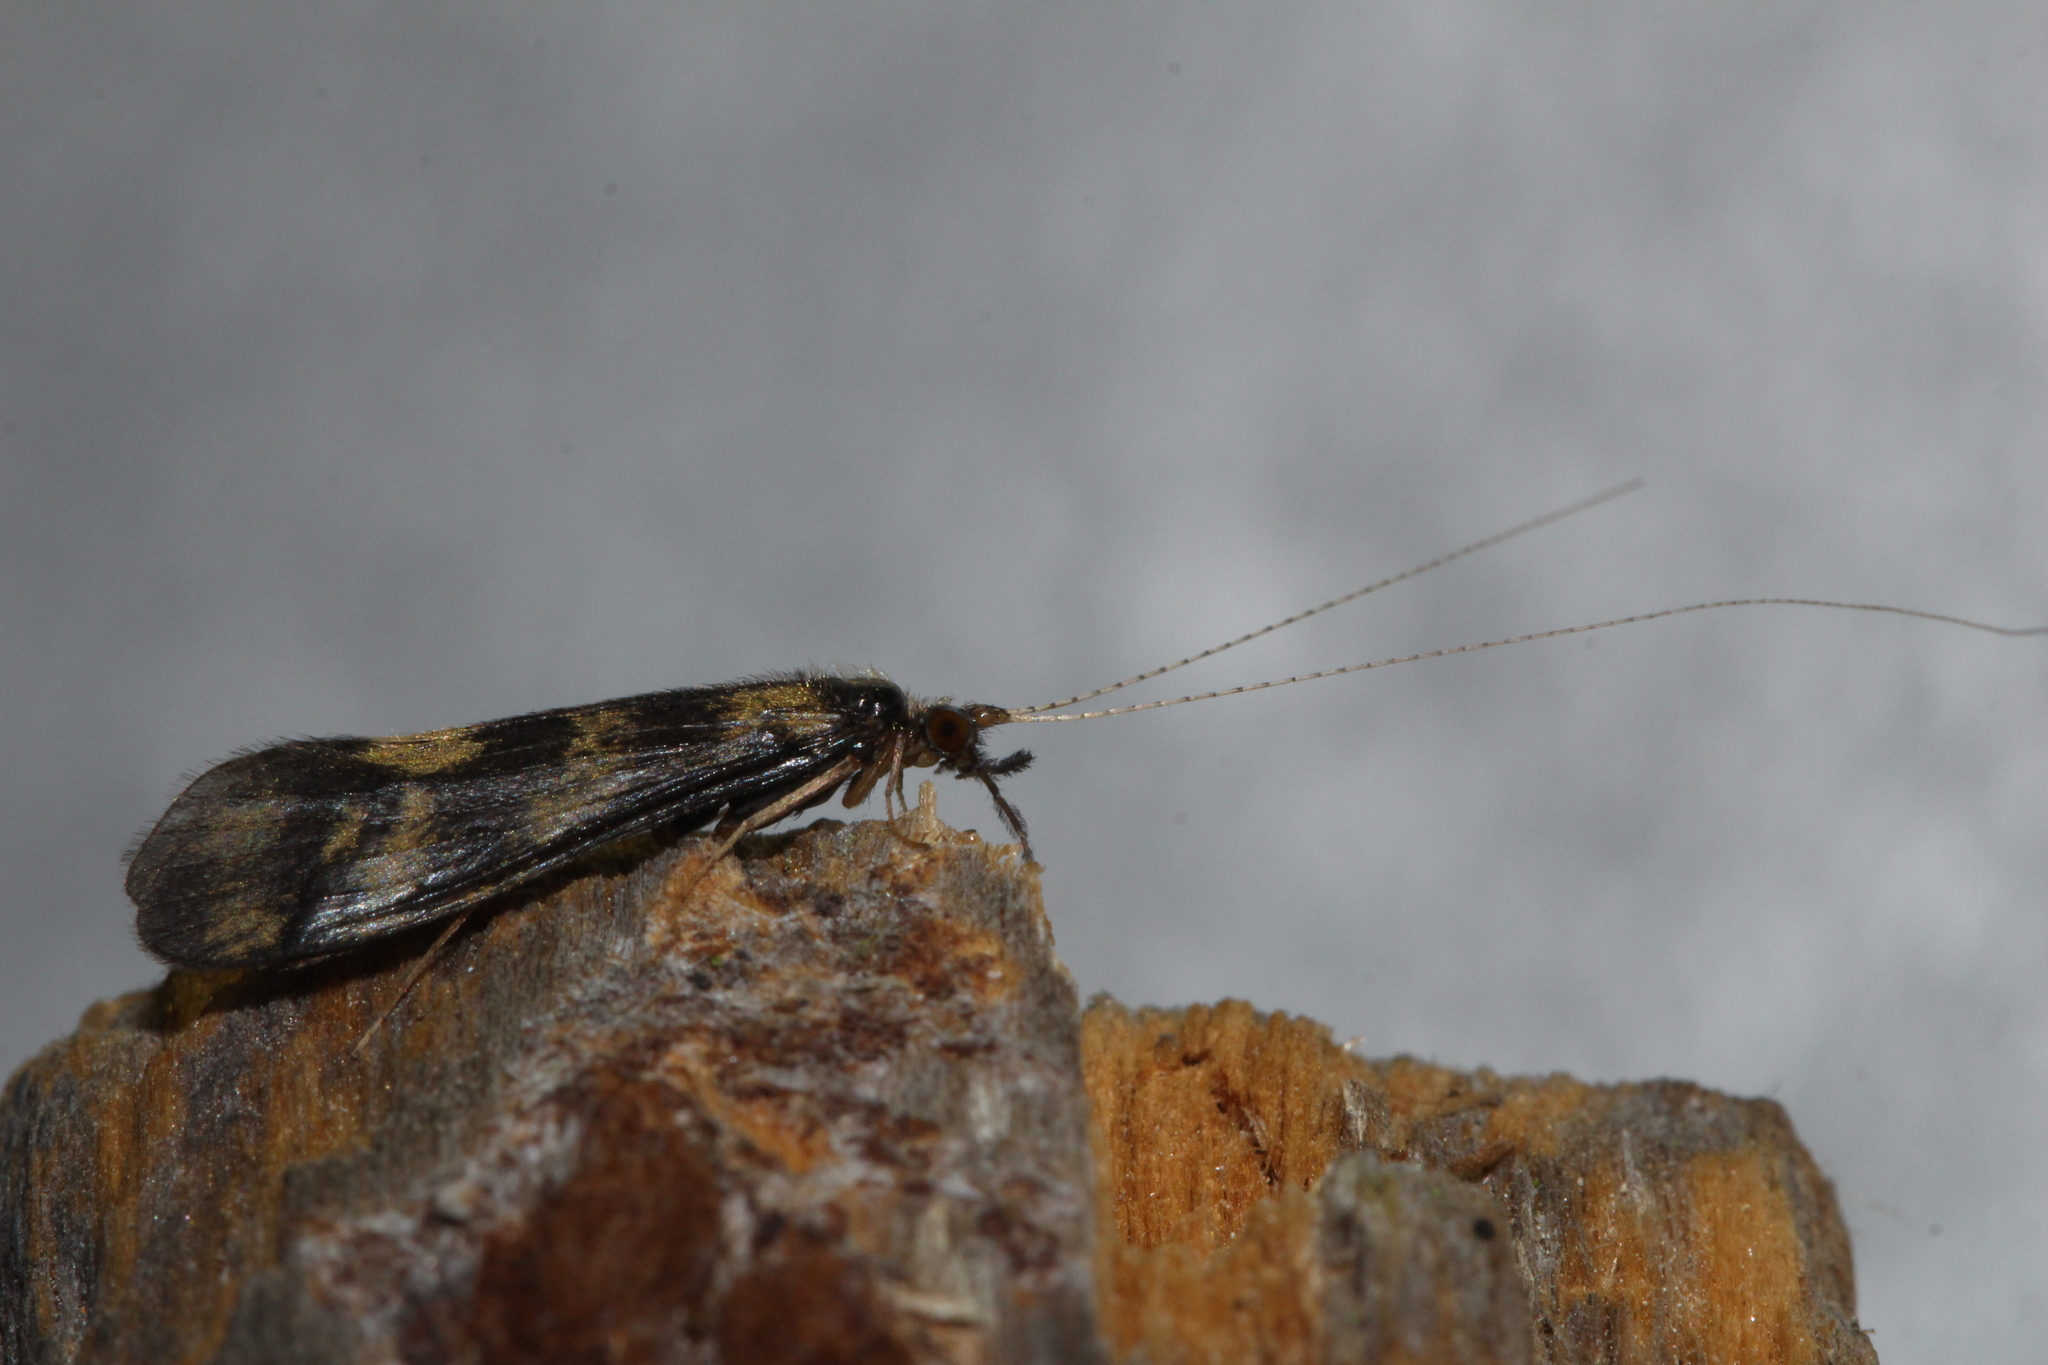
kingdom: Animalia
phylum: Arthropoda
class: Insecta
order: Trichoptera
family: Leptoceridae
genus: Mystacides
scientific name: Mystacides longicornis
